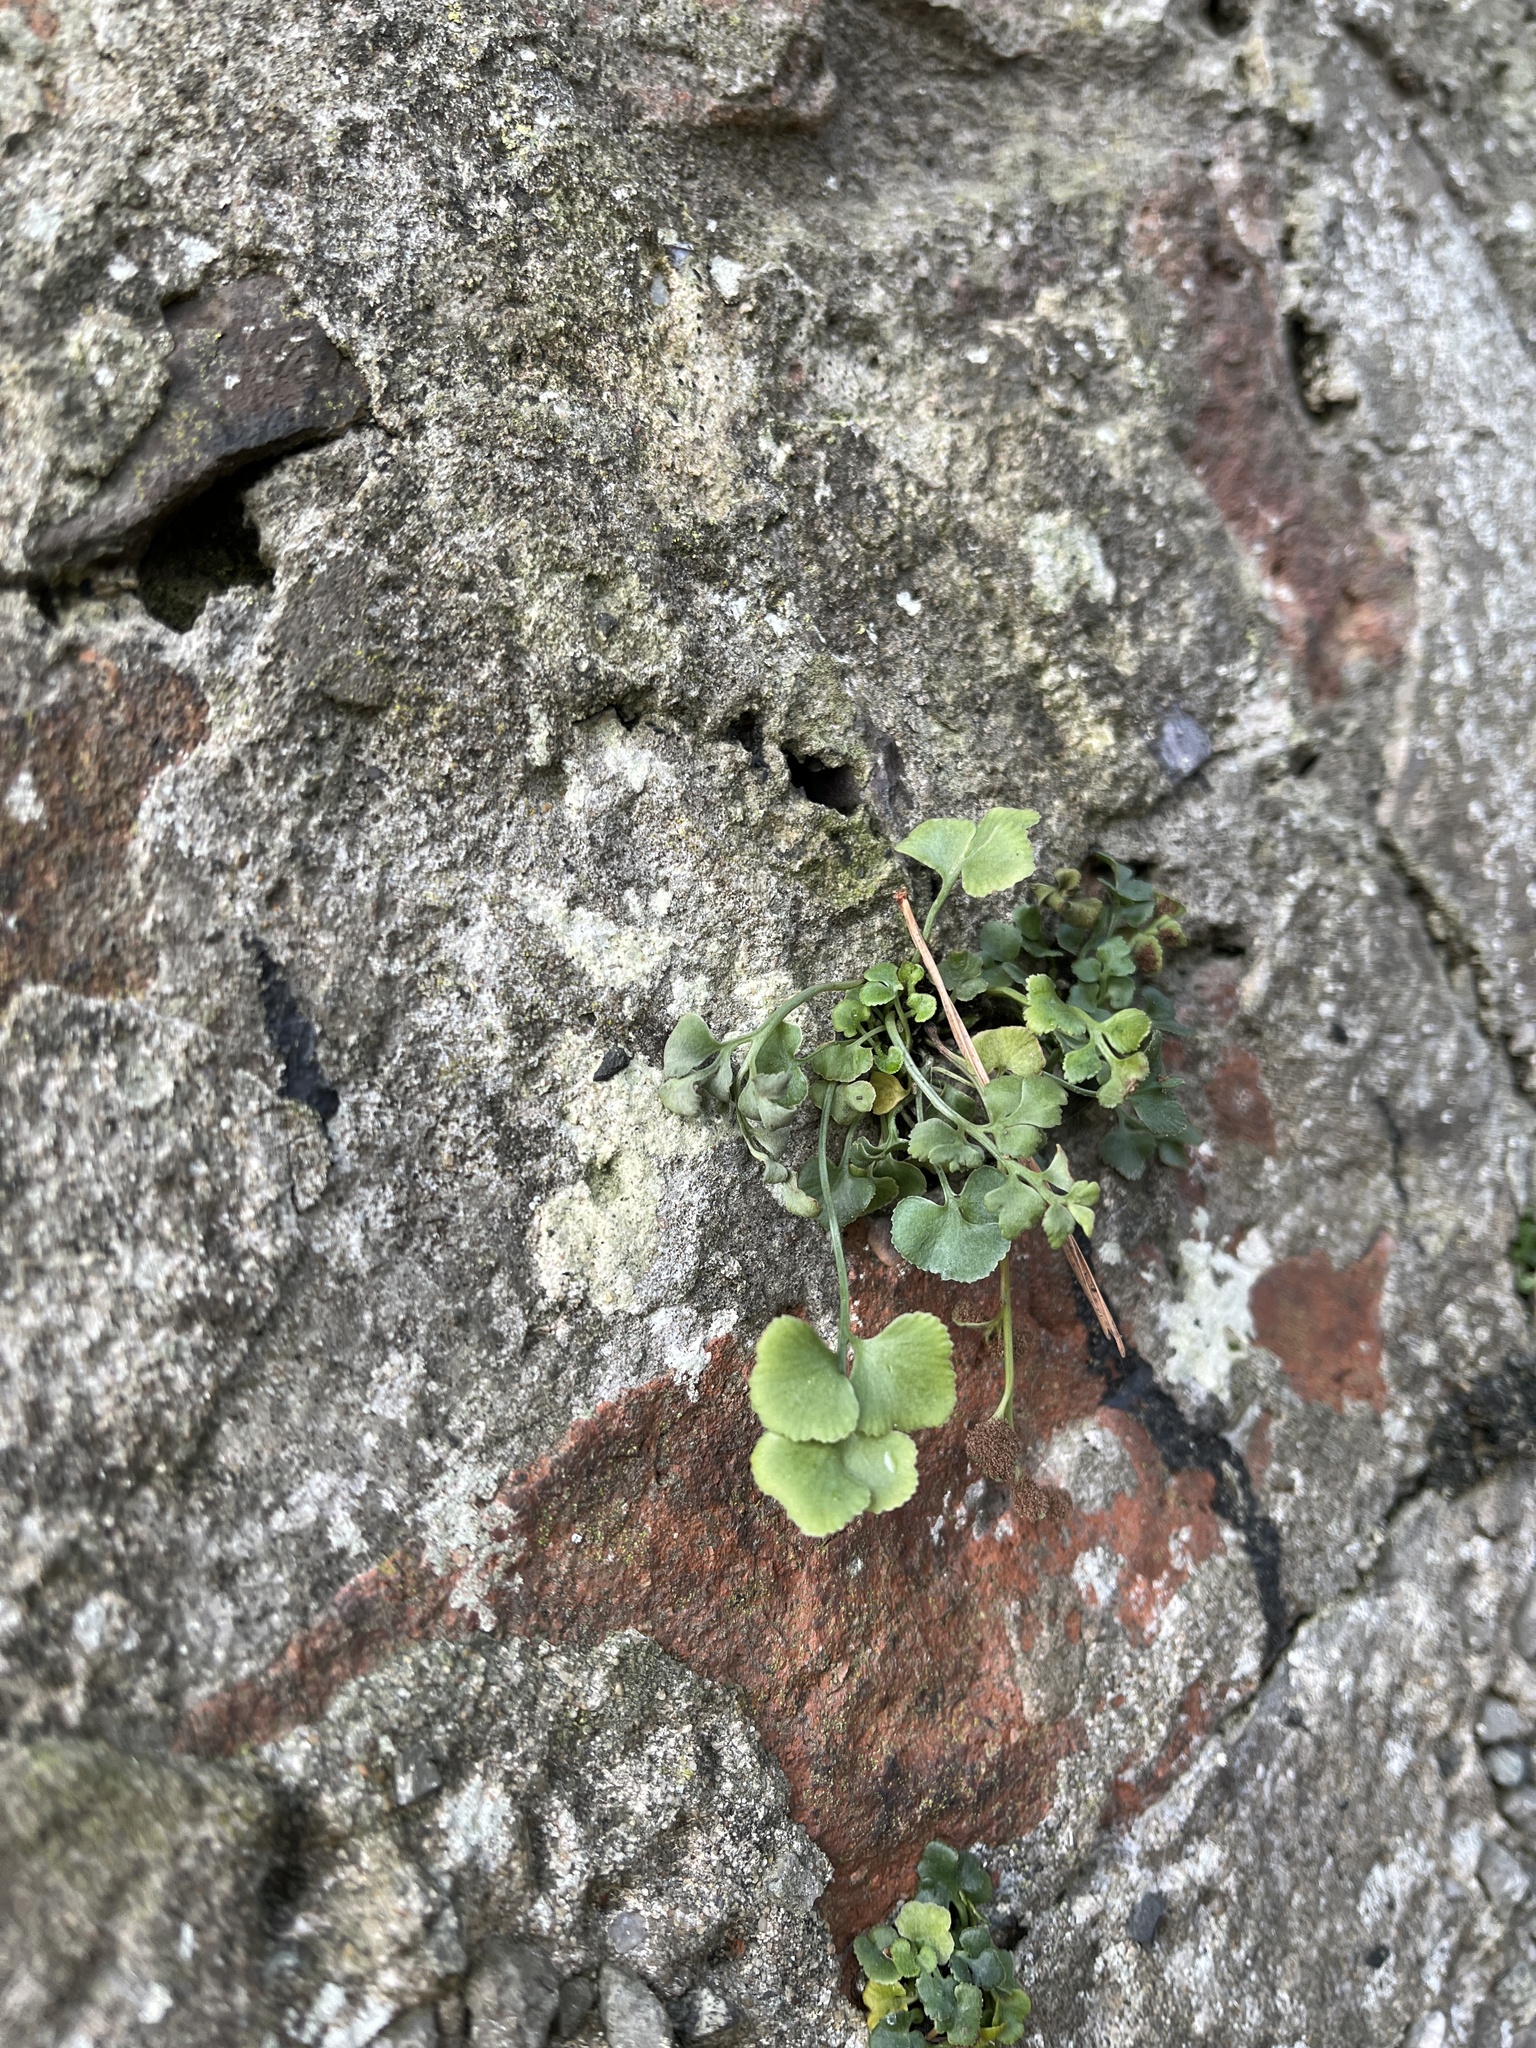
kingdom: Plantae
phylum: Tracheophyta
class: Polypodiopsida
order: Polypodiales
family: Aspleniaceae
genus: Asplenium
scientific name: Asplenium ruta-muraria
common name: Wall-rue
